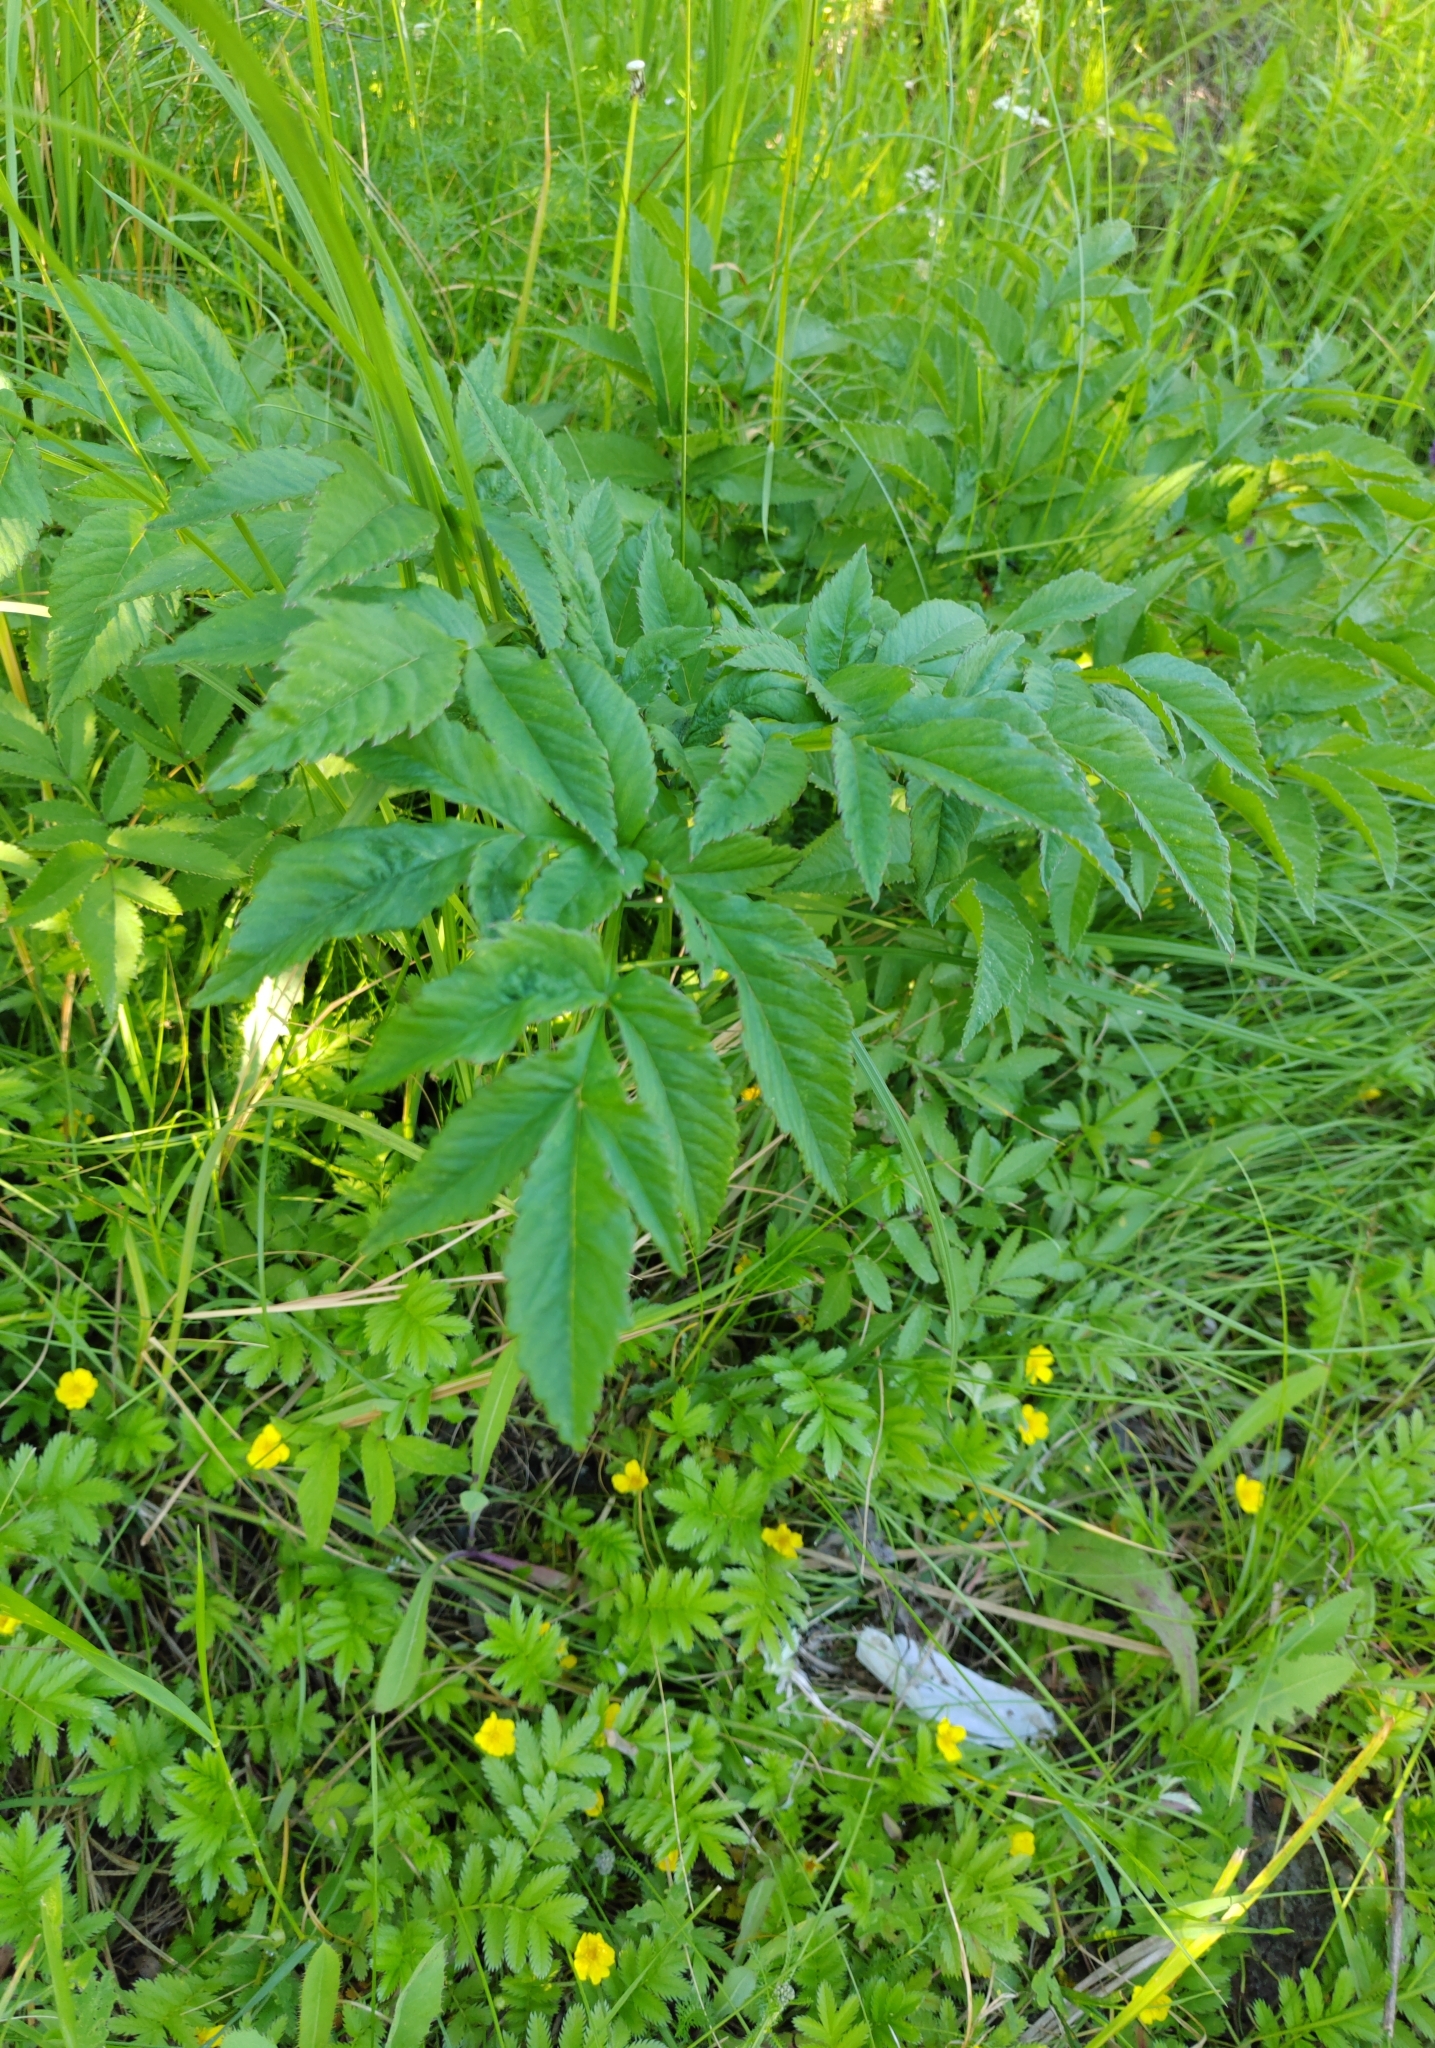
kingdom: Plantae
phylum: Tracheophyta
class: Magnoliopsida
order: Apiales
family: Apiaceae
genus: Angelica
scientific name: Angelica decurrens
